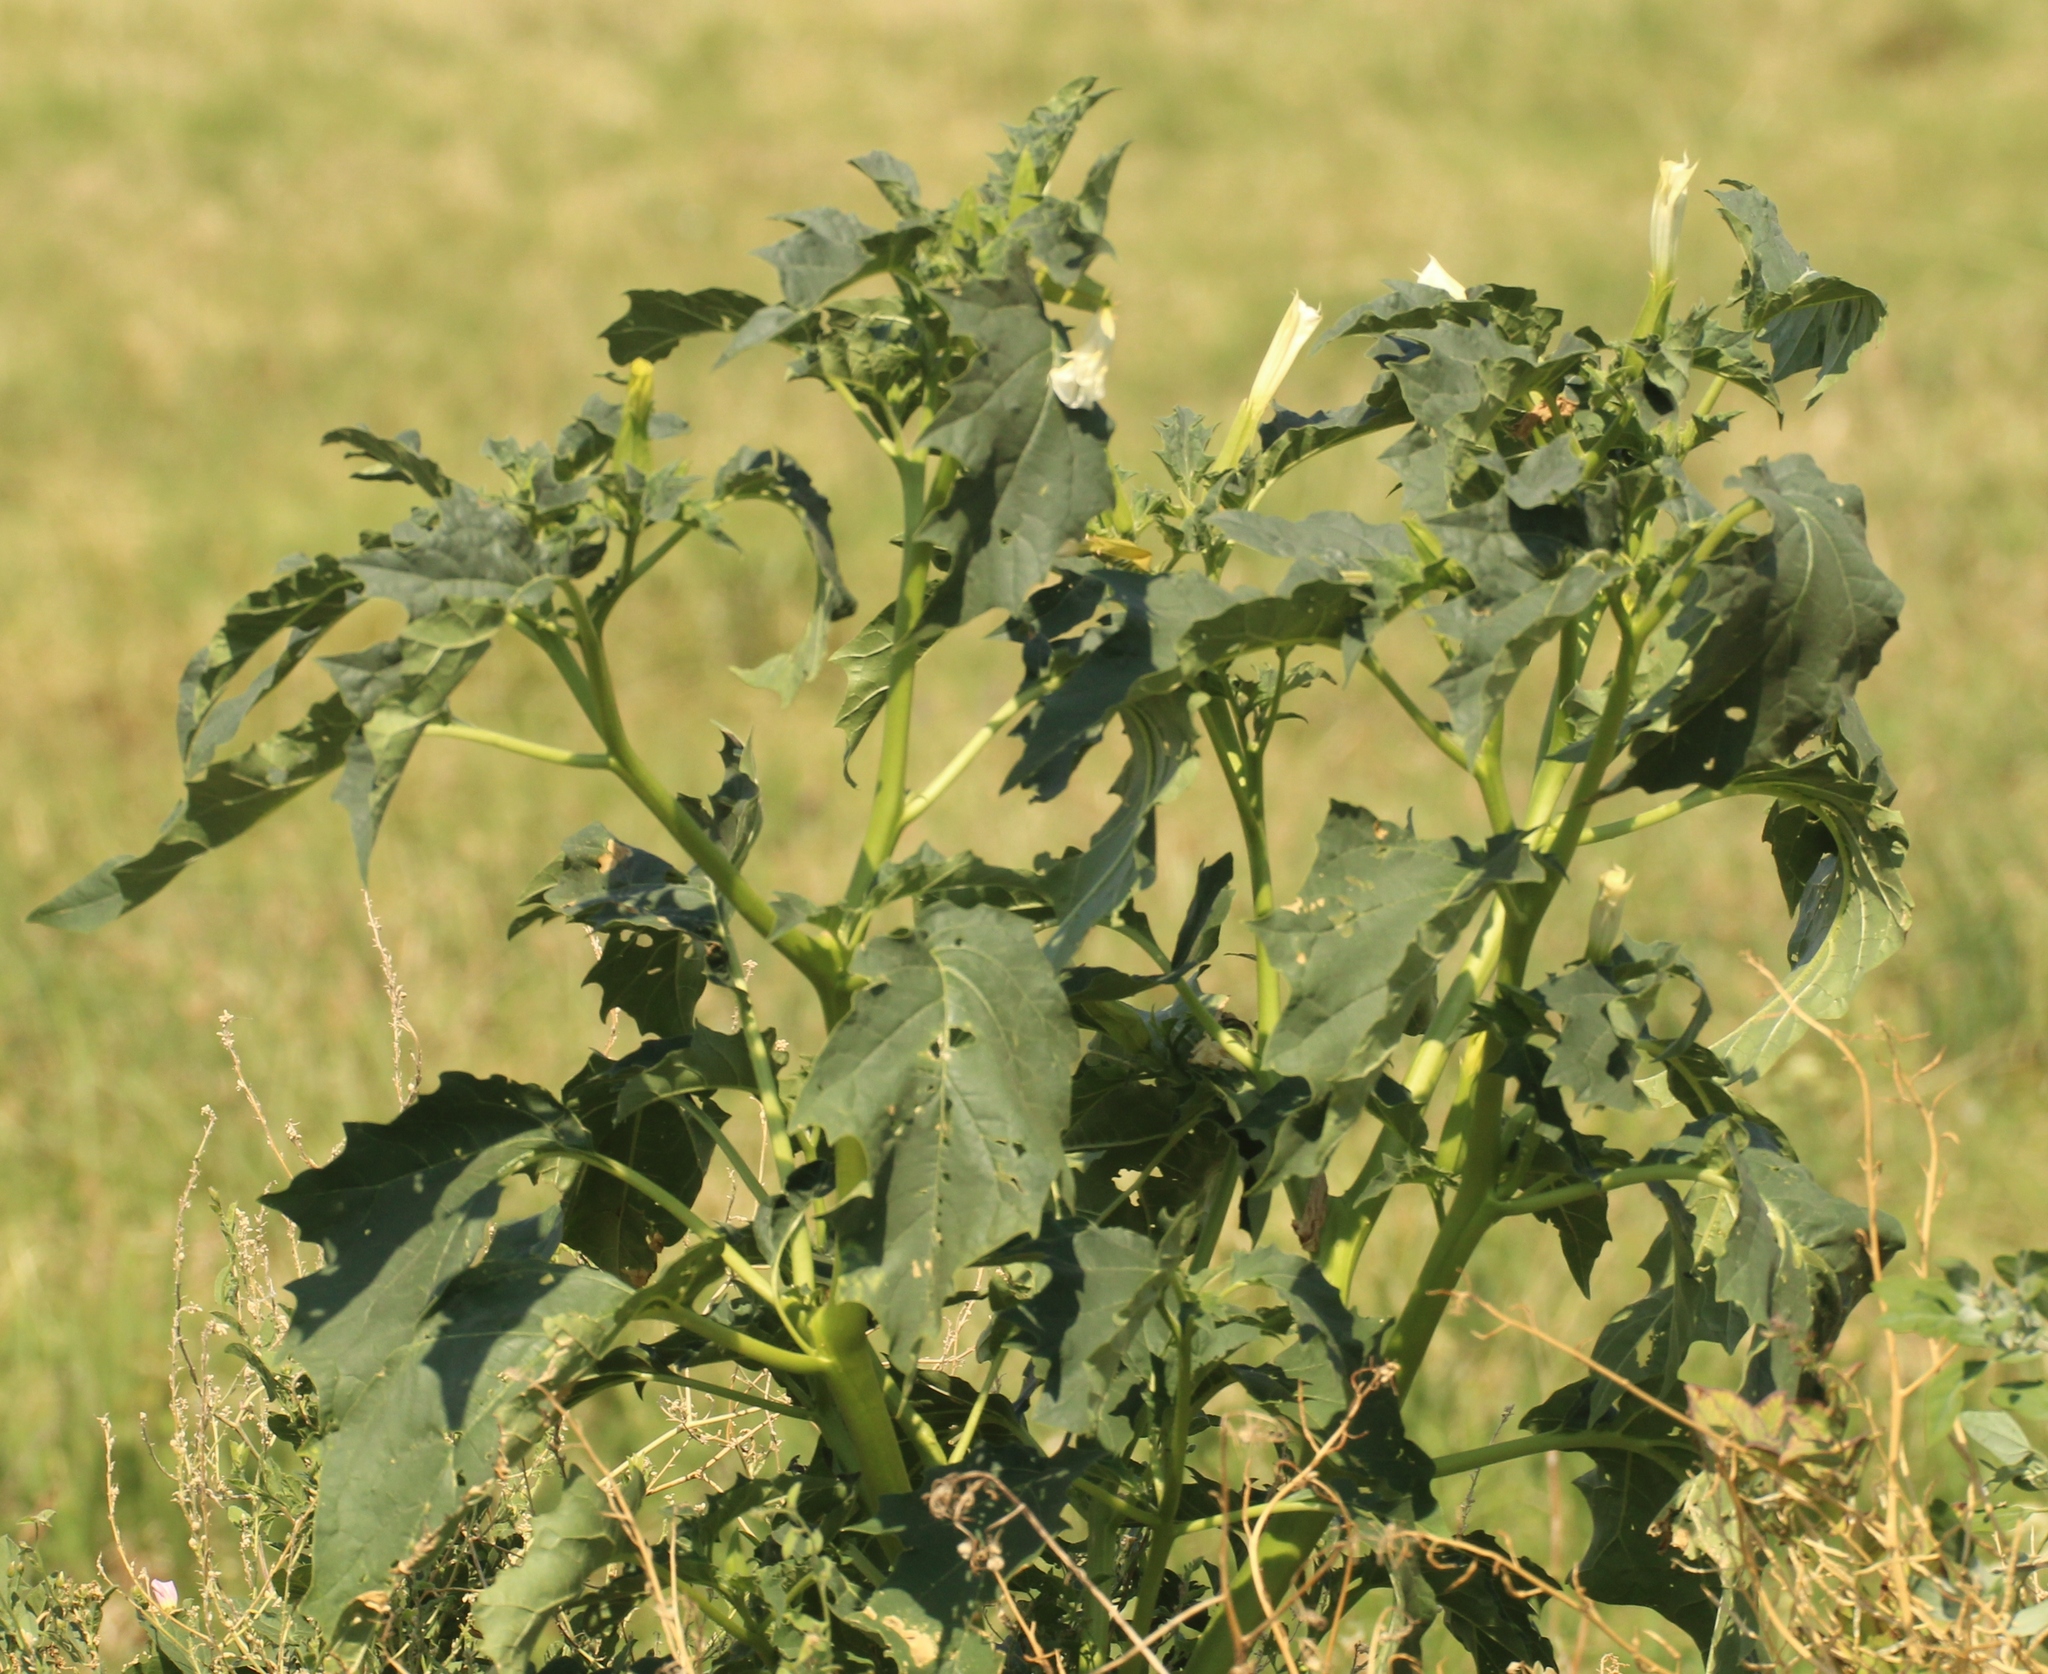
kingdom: Plantae
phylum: Tracheophyta
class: Magnoliopsida
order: Solanales
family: Solanaceae
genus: Datura
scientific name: Datura stramonium
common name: Thorn-apple
